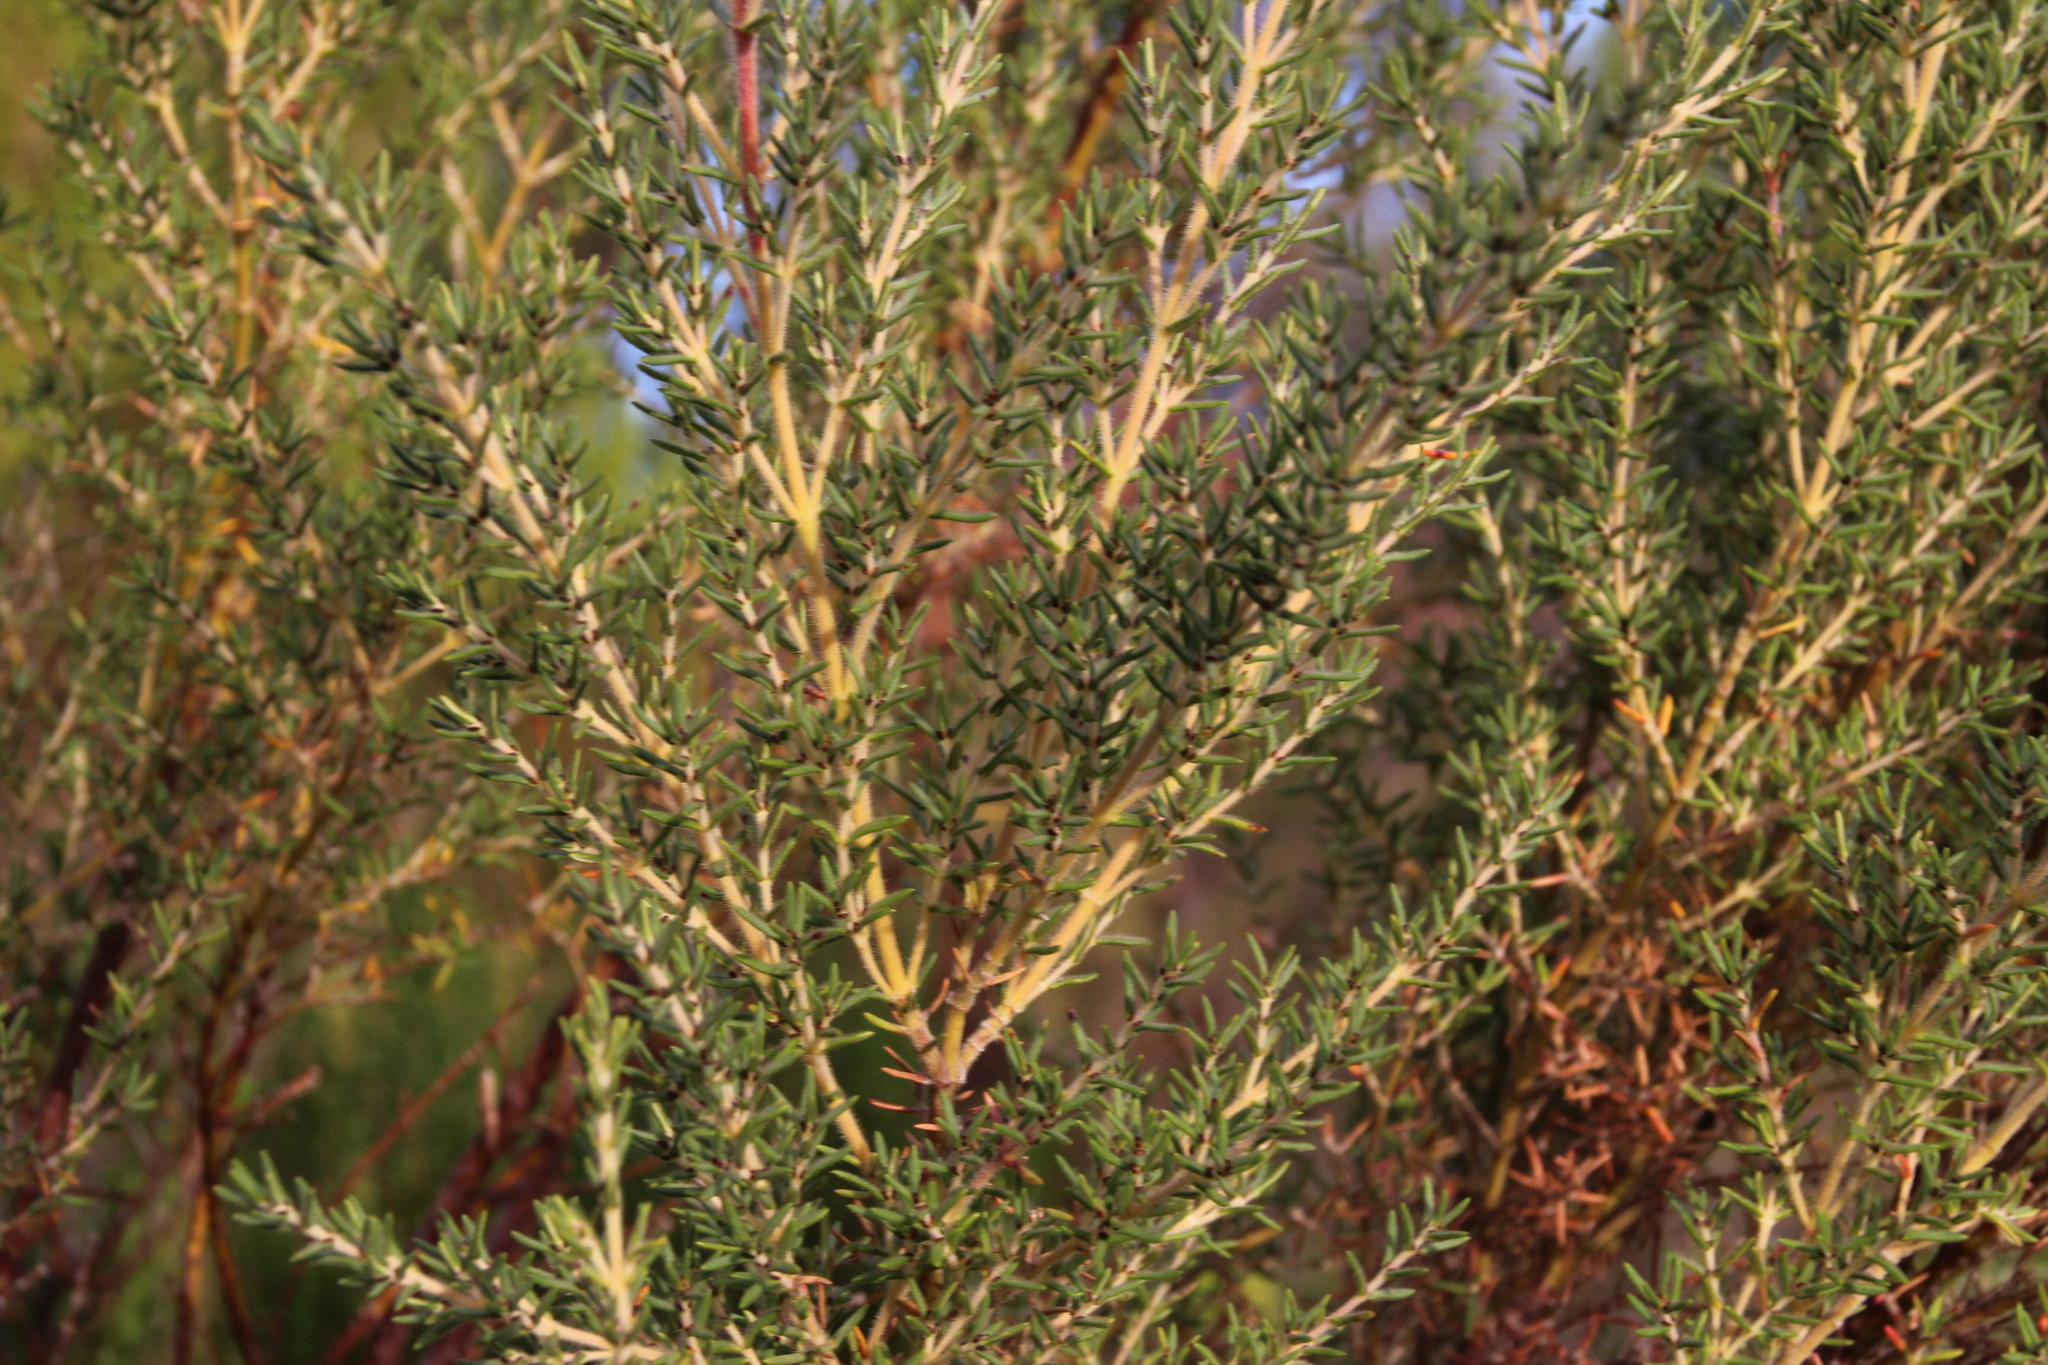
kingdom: Plantae
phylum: Tracheophyta
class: Magnoliopsida
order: Cornales
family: Grubbiaceae
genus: Grubbia
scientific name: Grubbia rosmarinifolia
